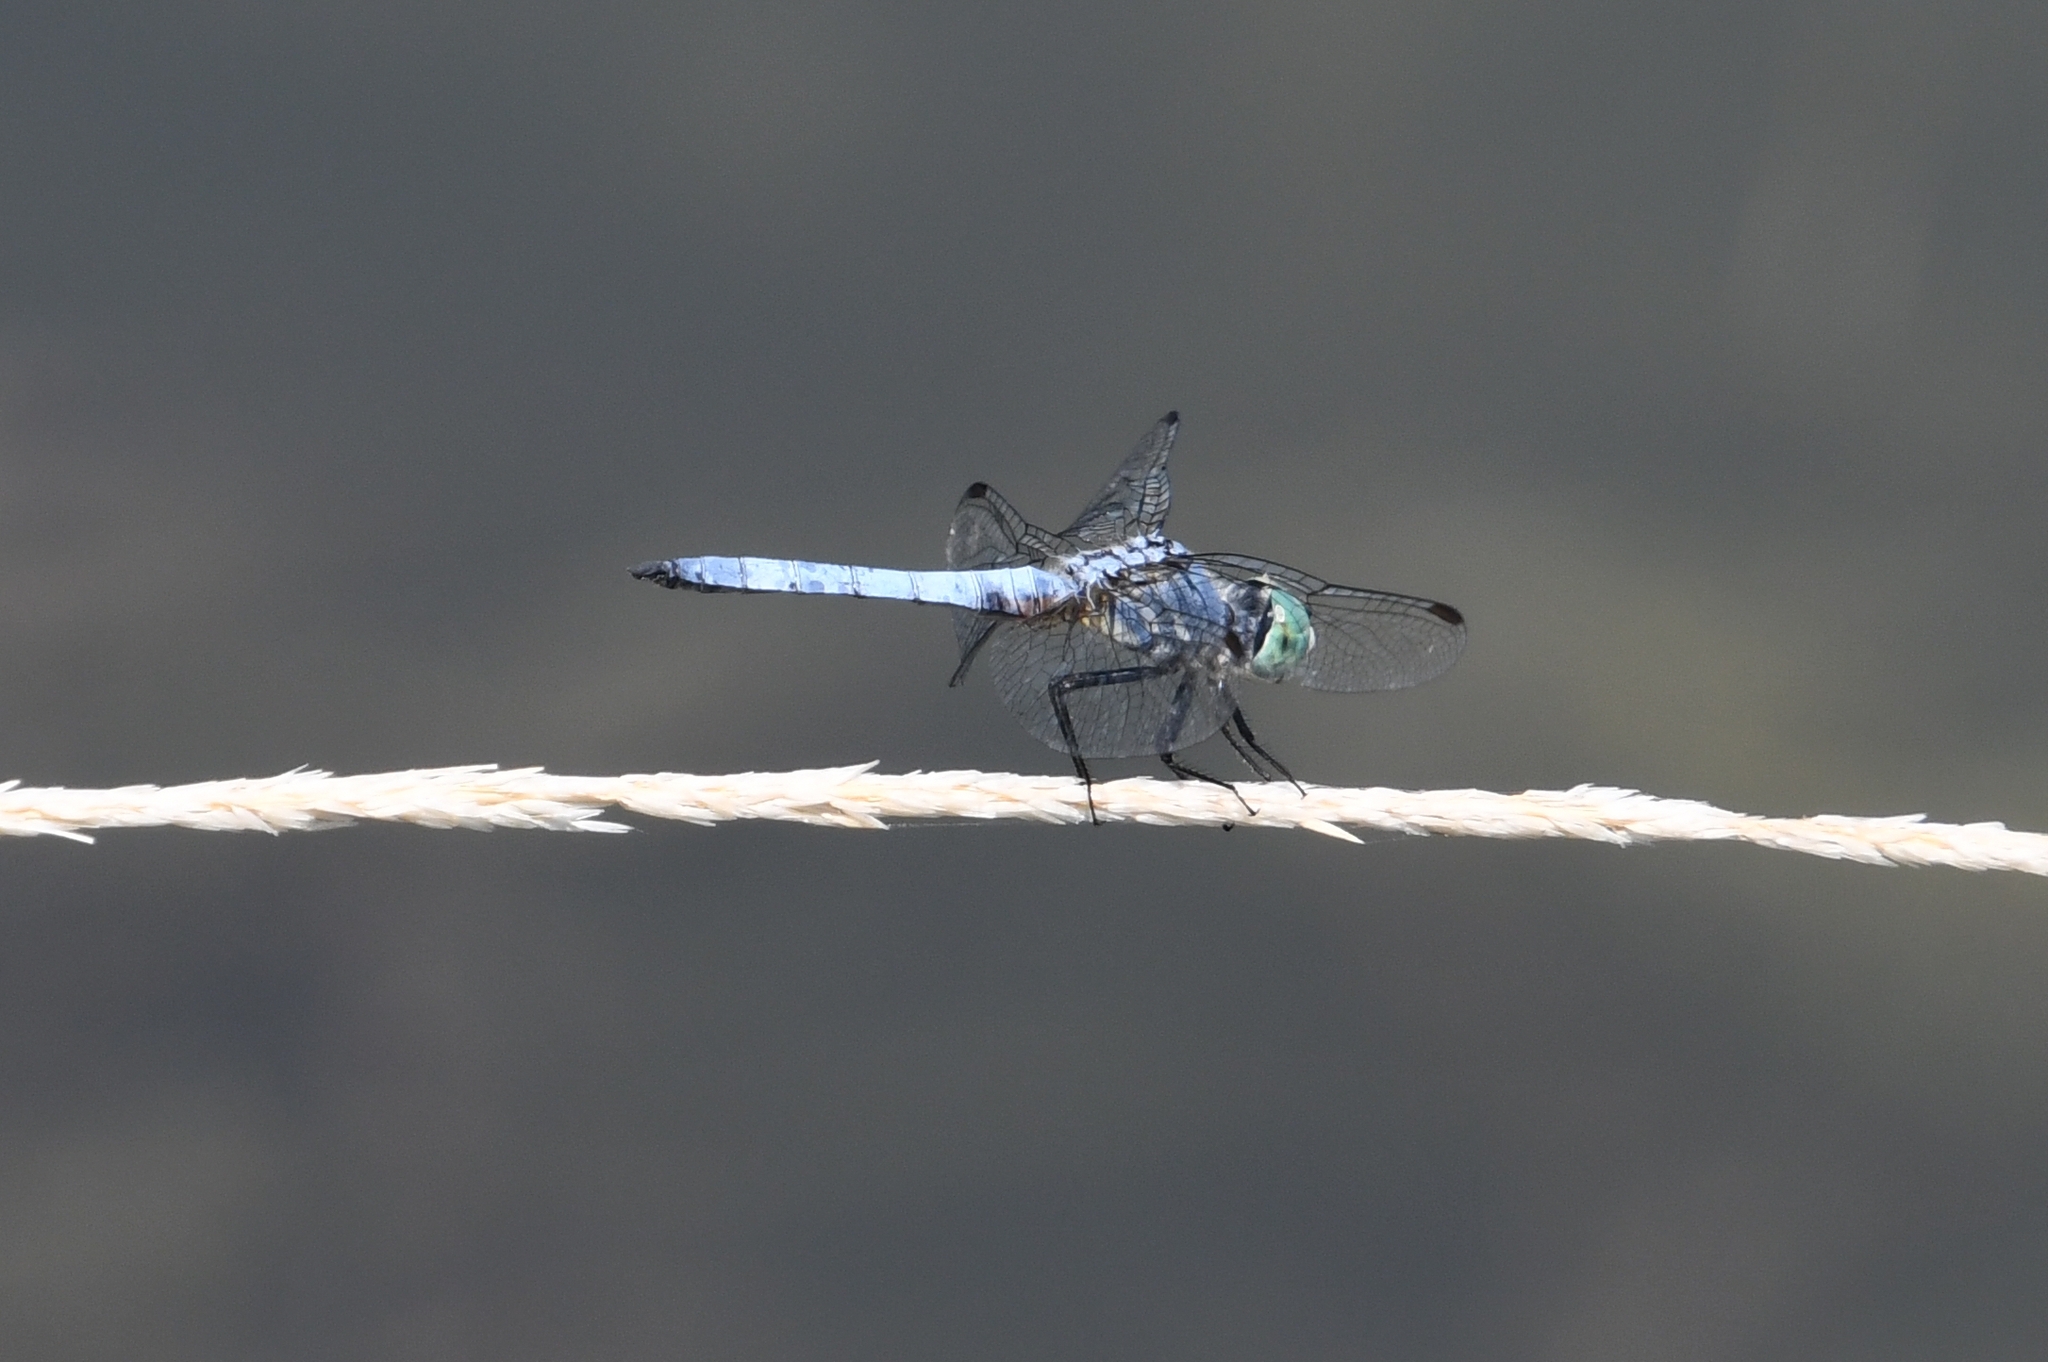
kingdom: Animalia
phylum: Arthropoda
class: Insecta
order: Odonata
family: Libellulidae
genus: Pachydiplax
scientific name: Pachydiplax longipennis
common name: Blue dasher
